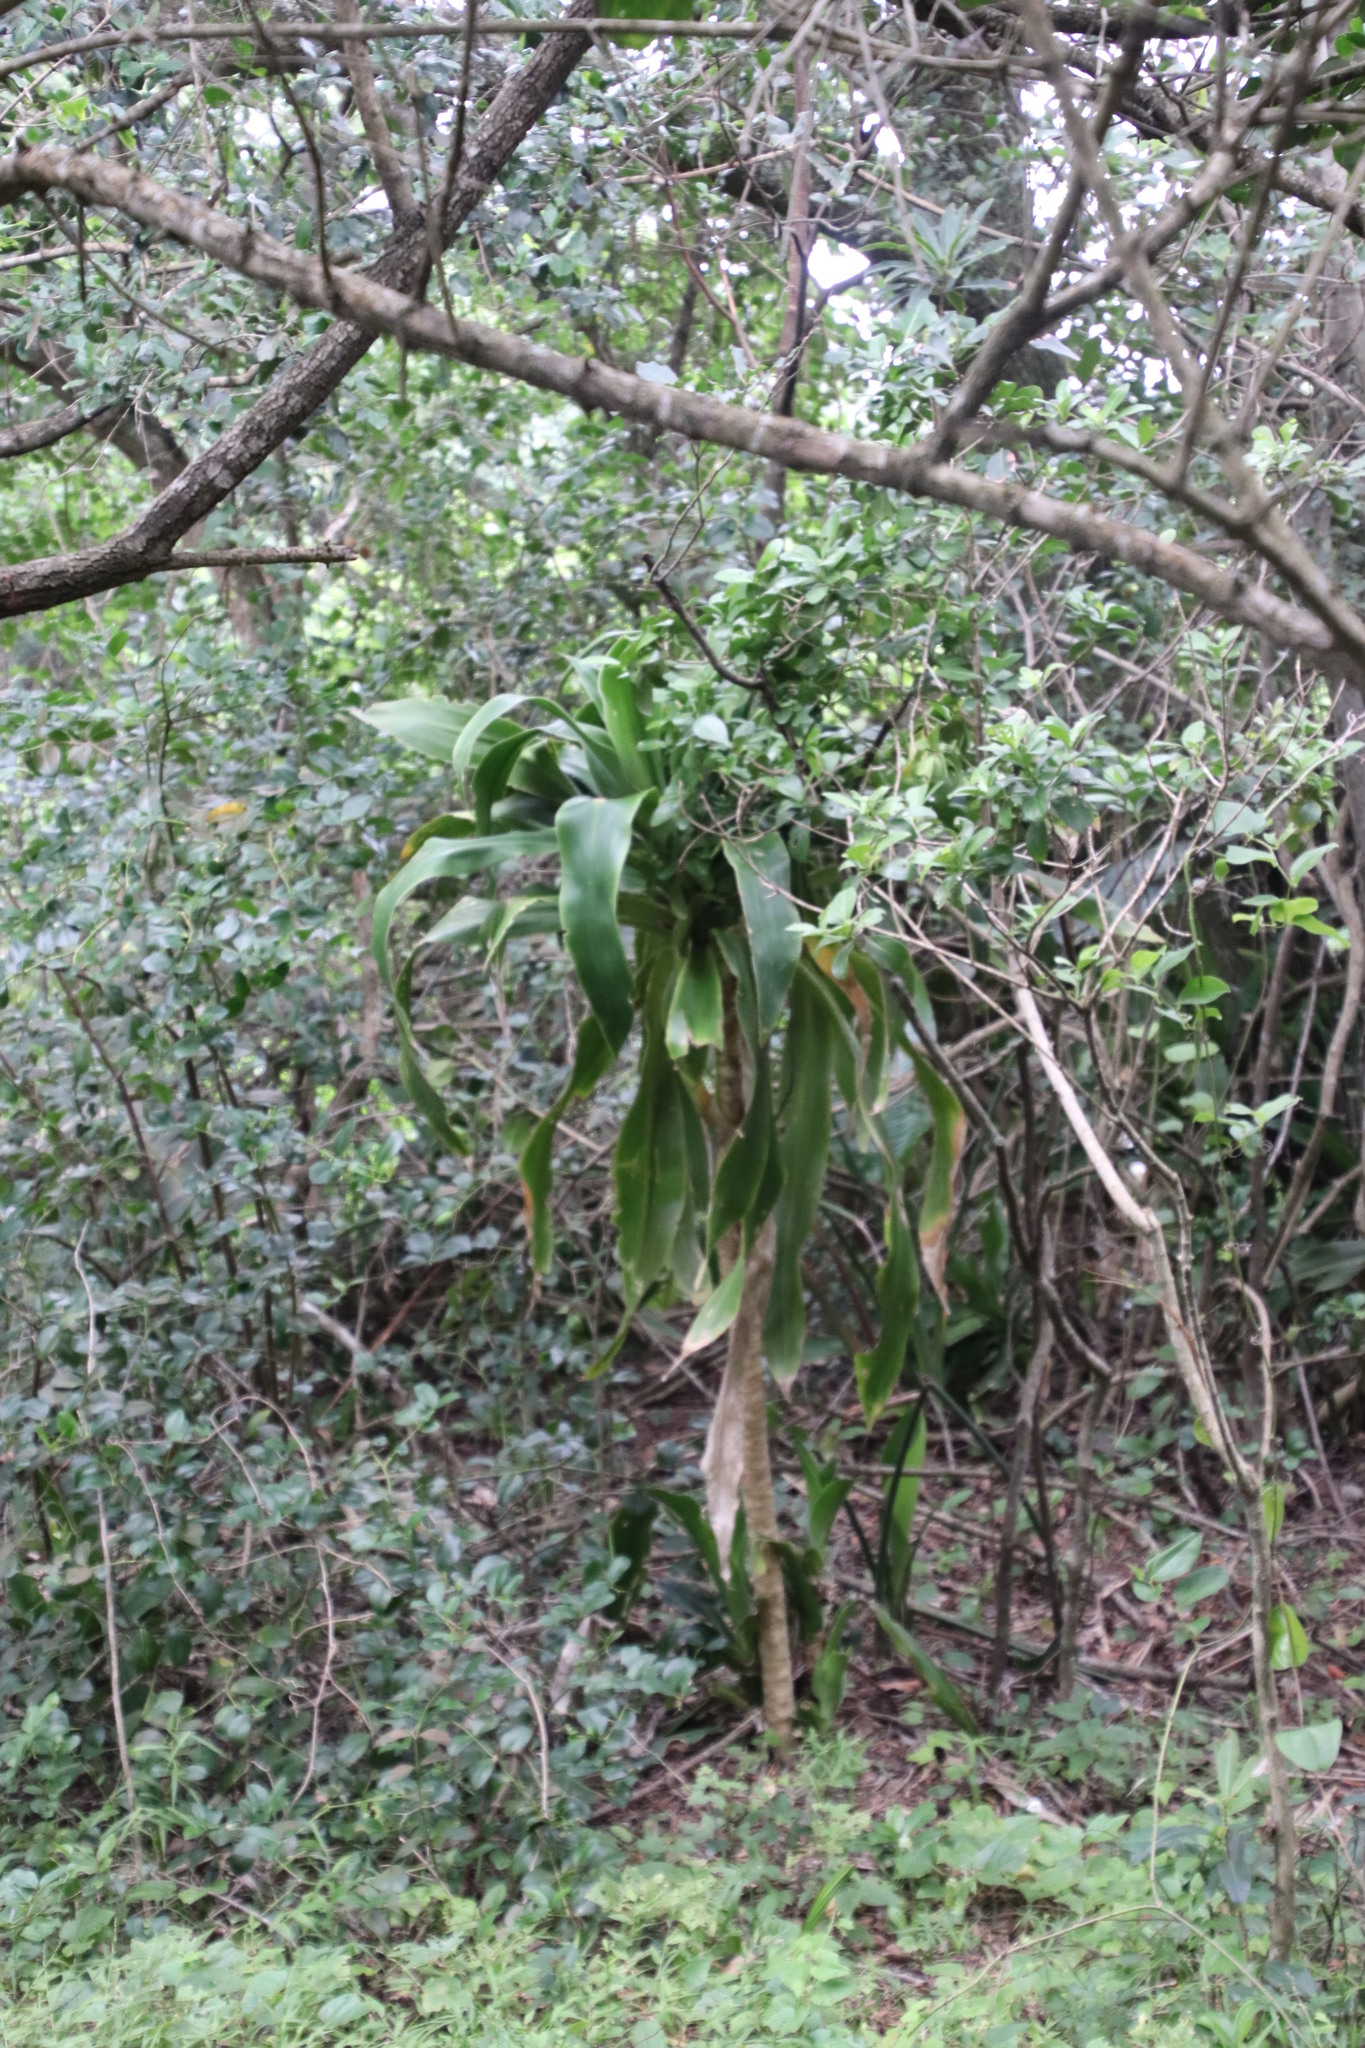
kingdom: Plantae
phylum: Tracheophyta
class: Liliopsida
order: Asparagales
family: Asparagaceae
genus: Dracaena
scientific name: Dracaena aletriformis
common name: Large-leaved dragon tree
